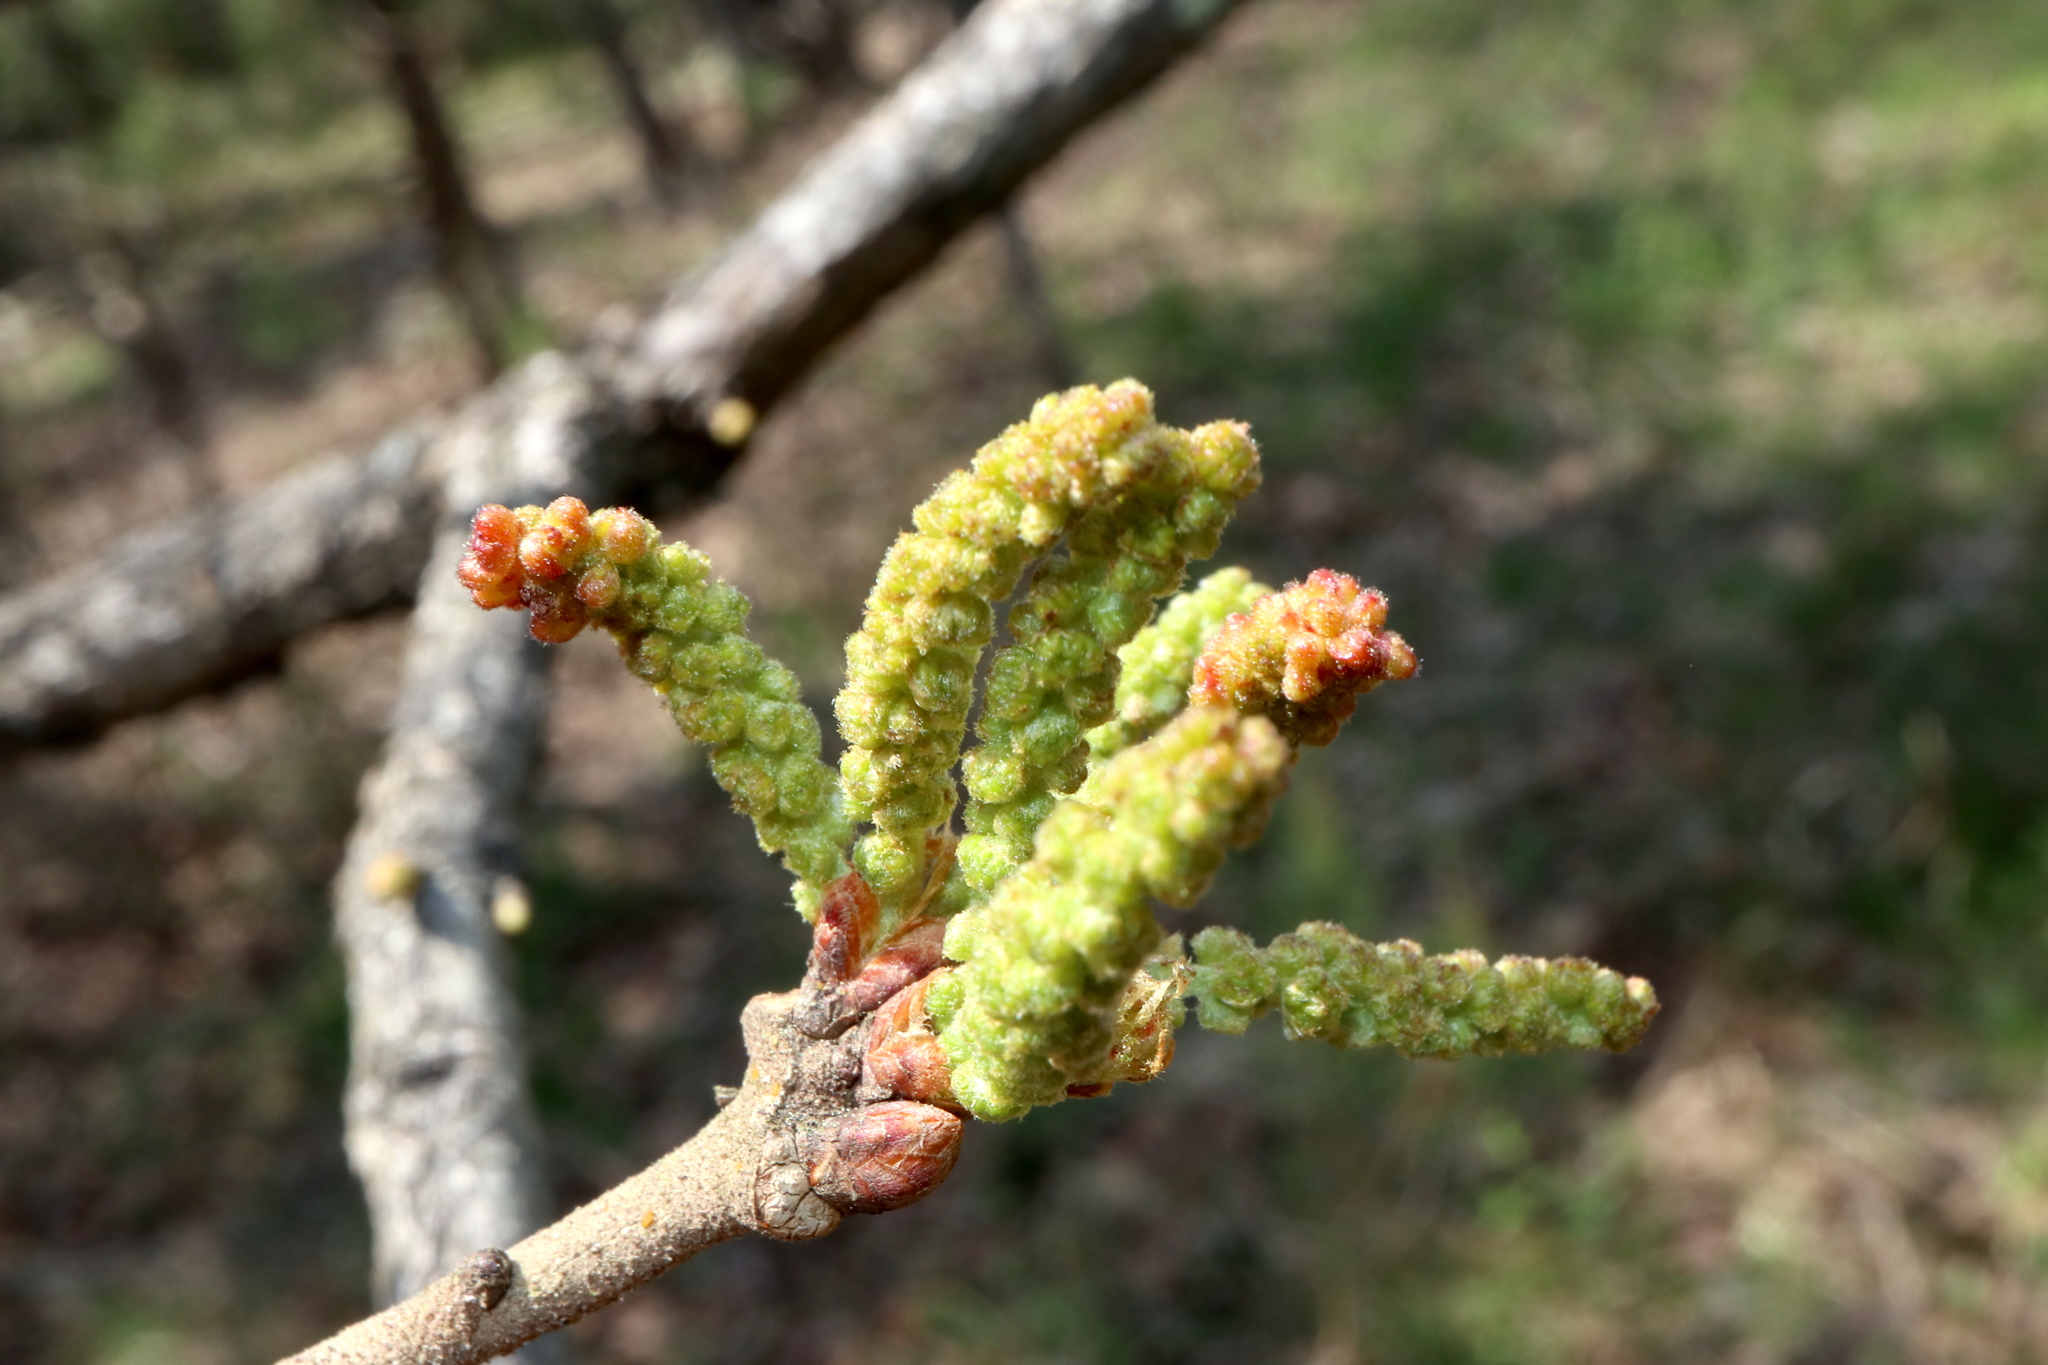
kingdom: Animalia
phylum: Arthropoda
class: Insecta
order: Hymenoptera
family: Cynipidae
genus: Callirhytis
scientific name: Callirhytis
